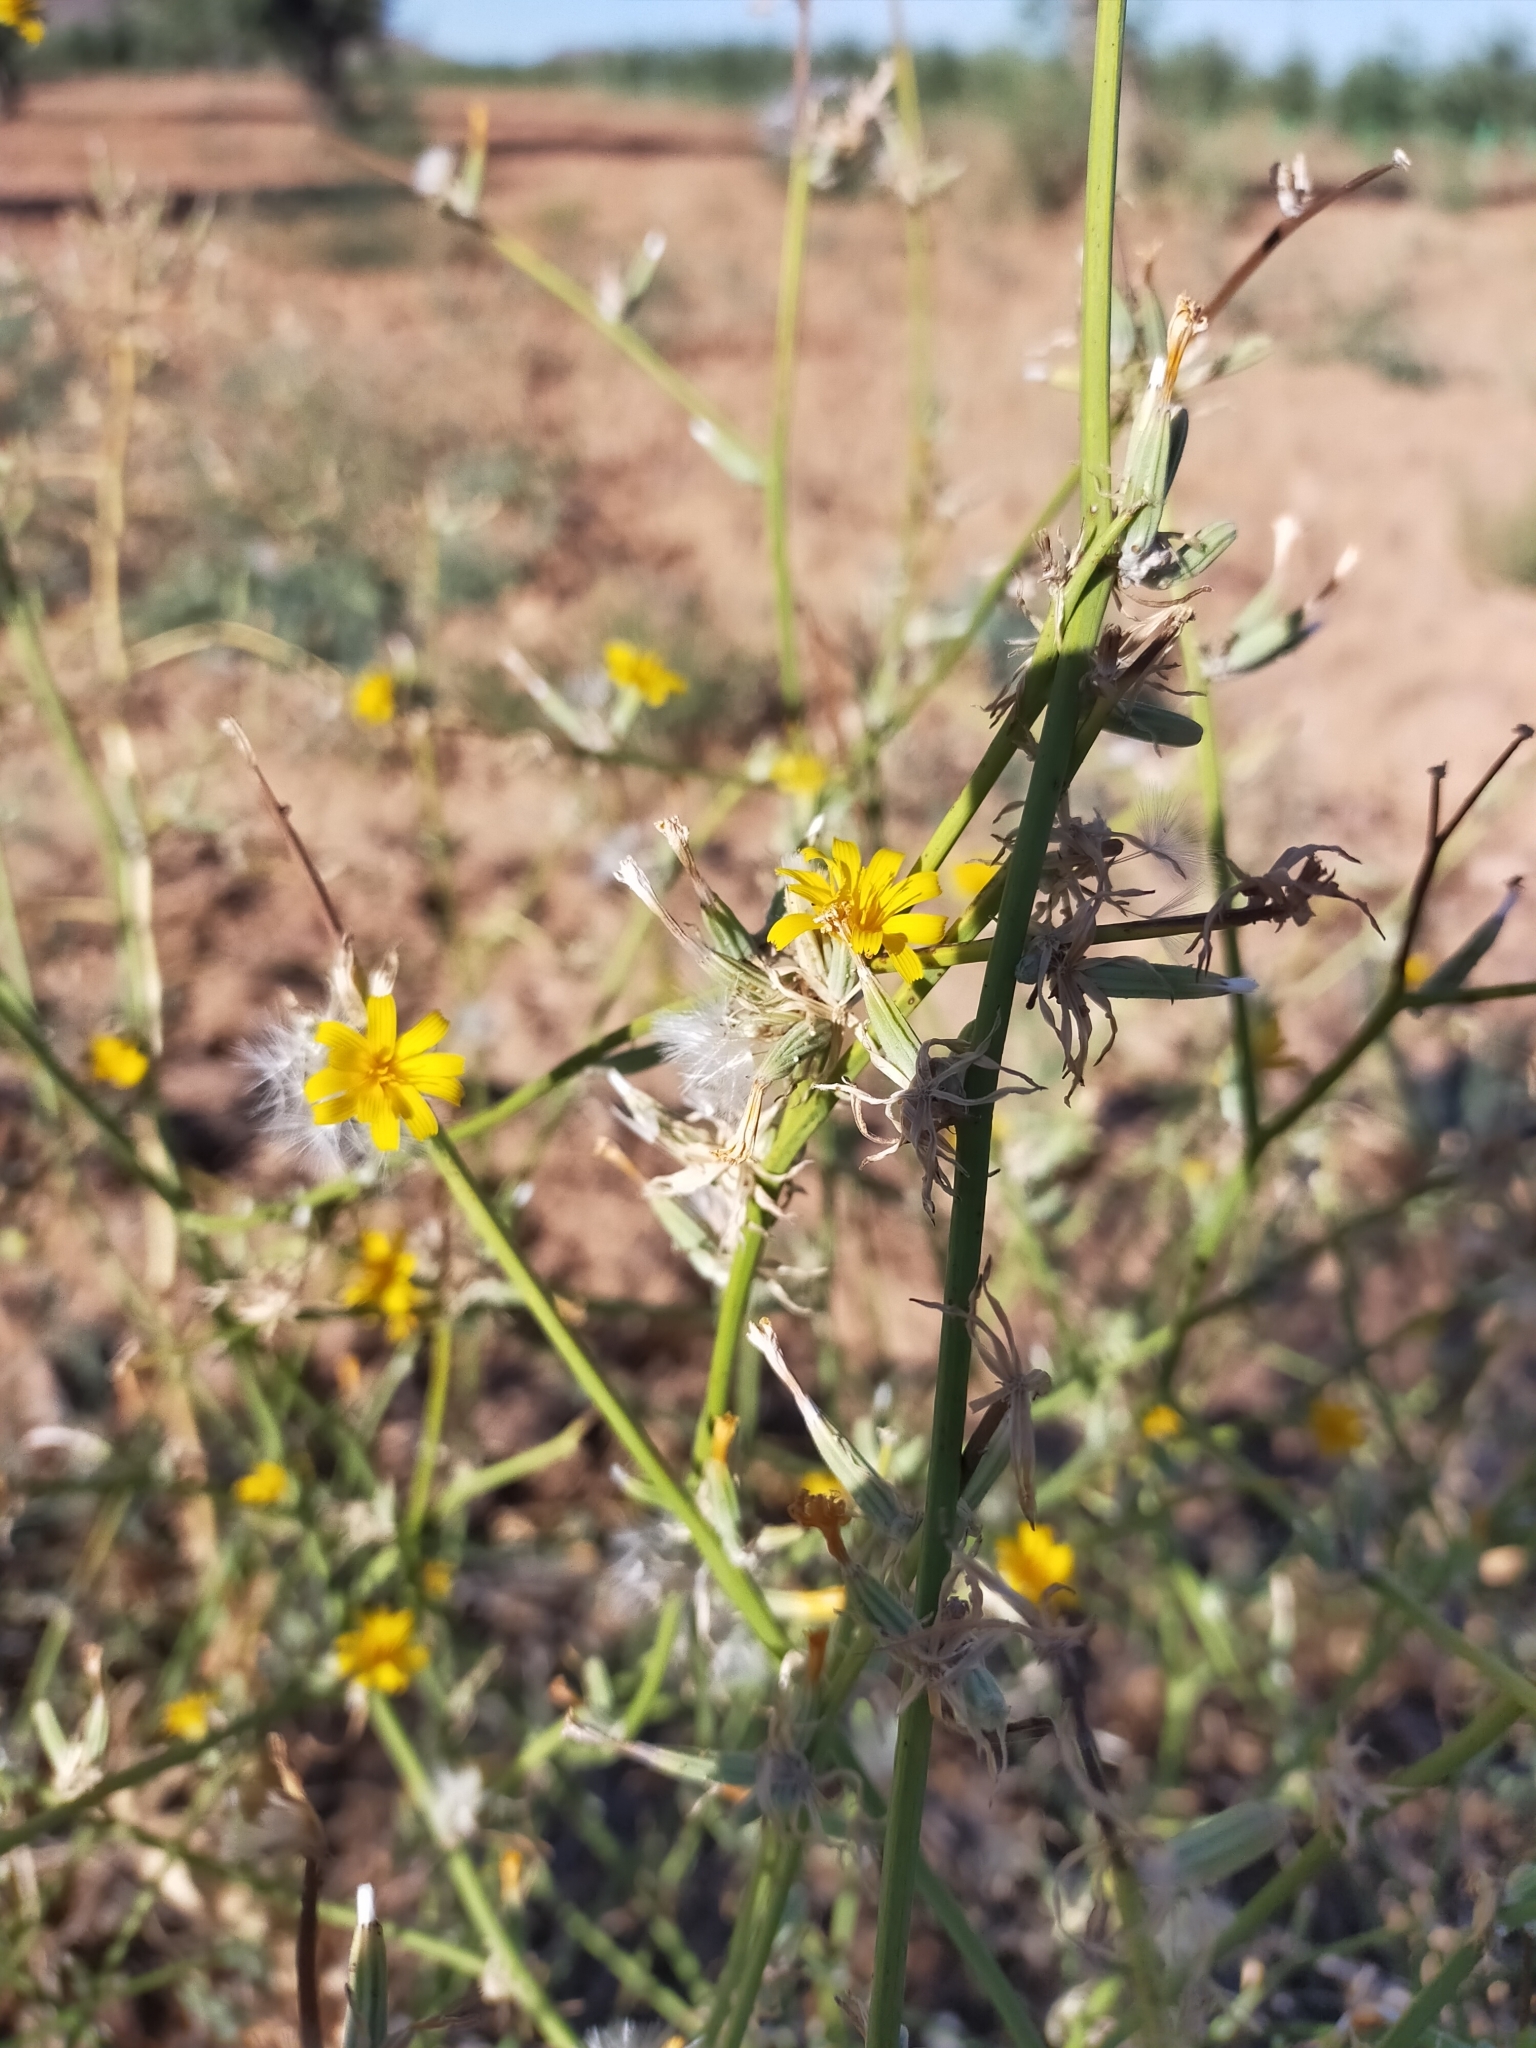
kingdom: Plantae
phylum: Tracheophyta
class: Magnoliopsida
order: Asterales
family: Asteraceae
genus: Chondrilla
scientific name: Chondrilla juncea
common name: Skeleton weed
